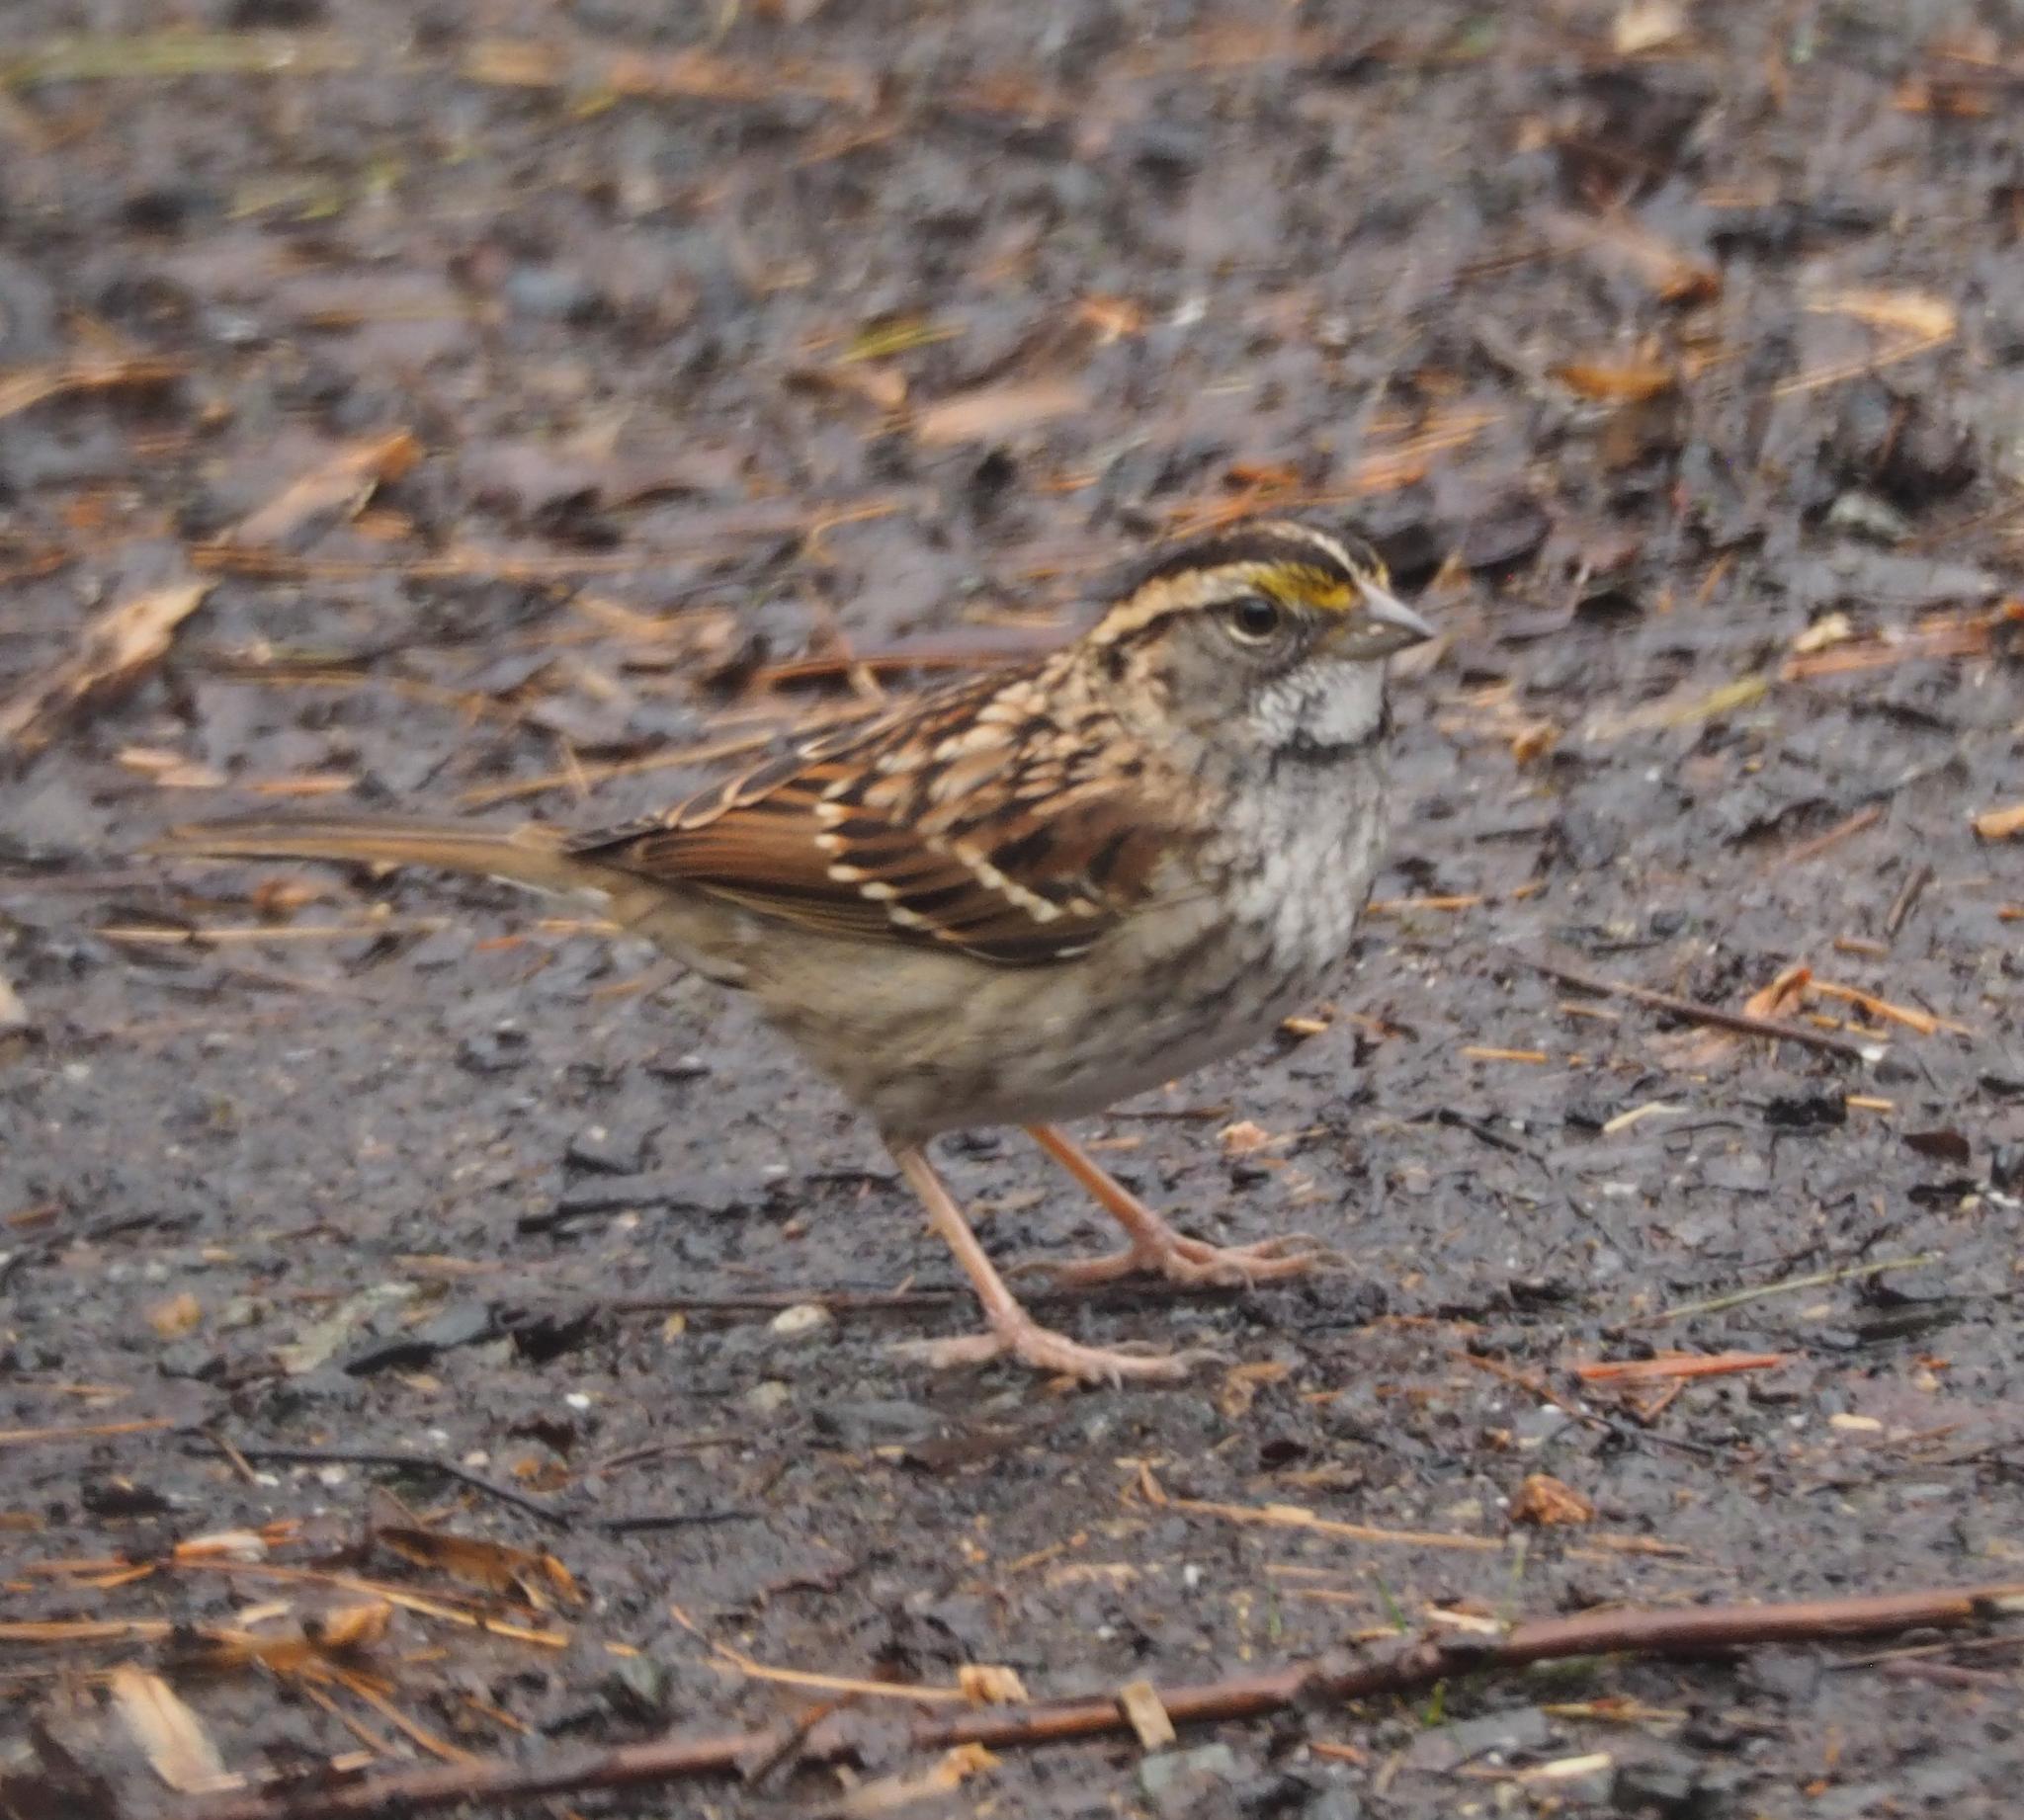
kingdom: Animalia
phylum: Chordata
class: Aves
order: Passeriformes
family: Passerellidae
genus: Zonotrichia
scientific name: Zonotrichia albicollis
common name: White-throated sparrow
